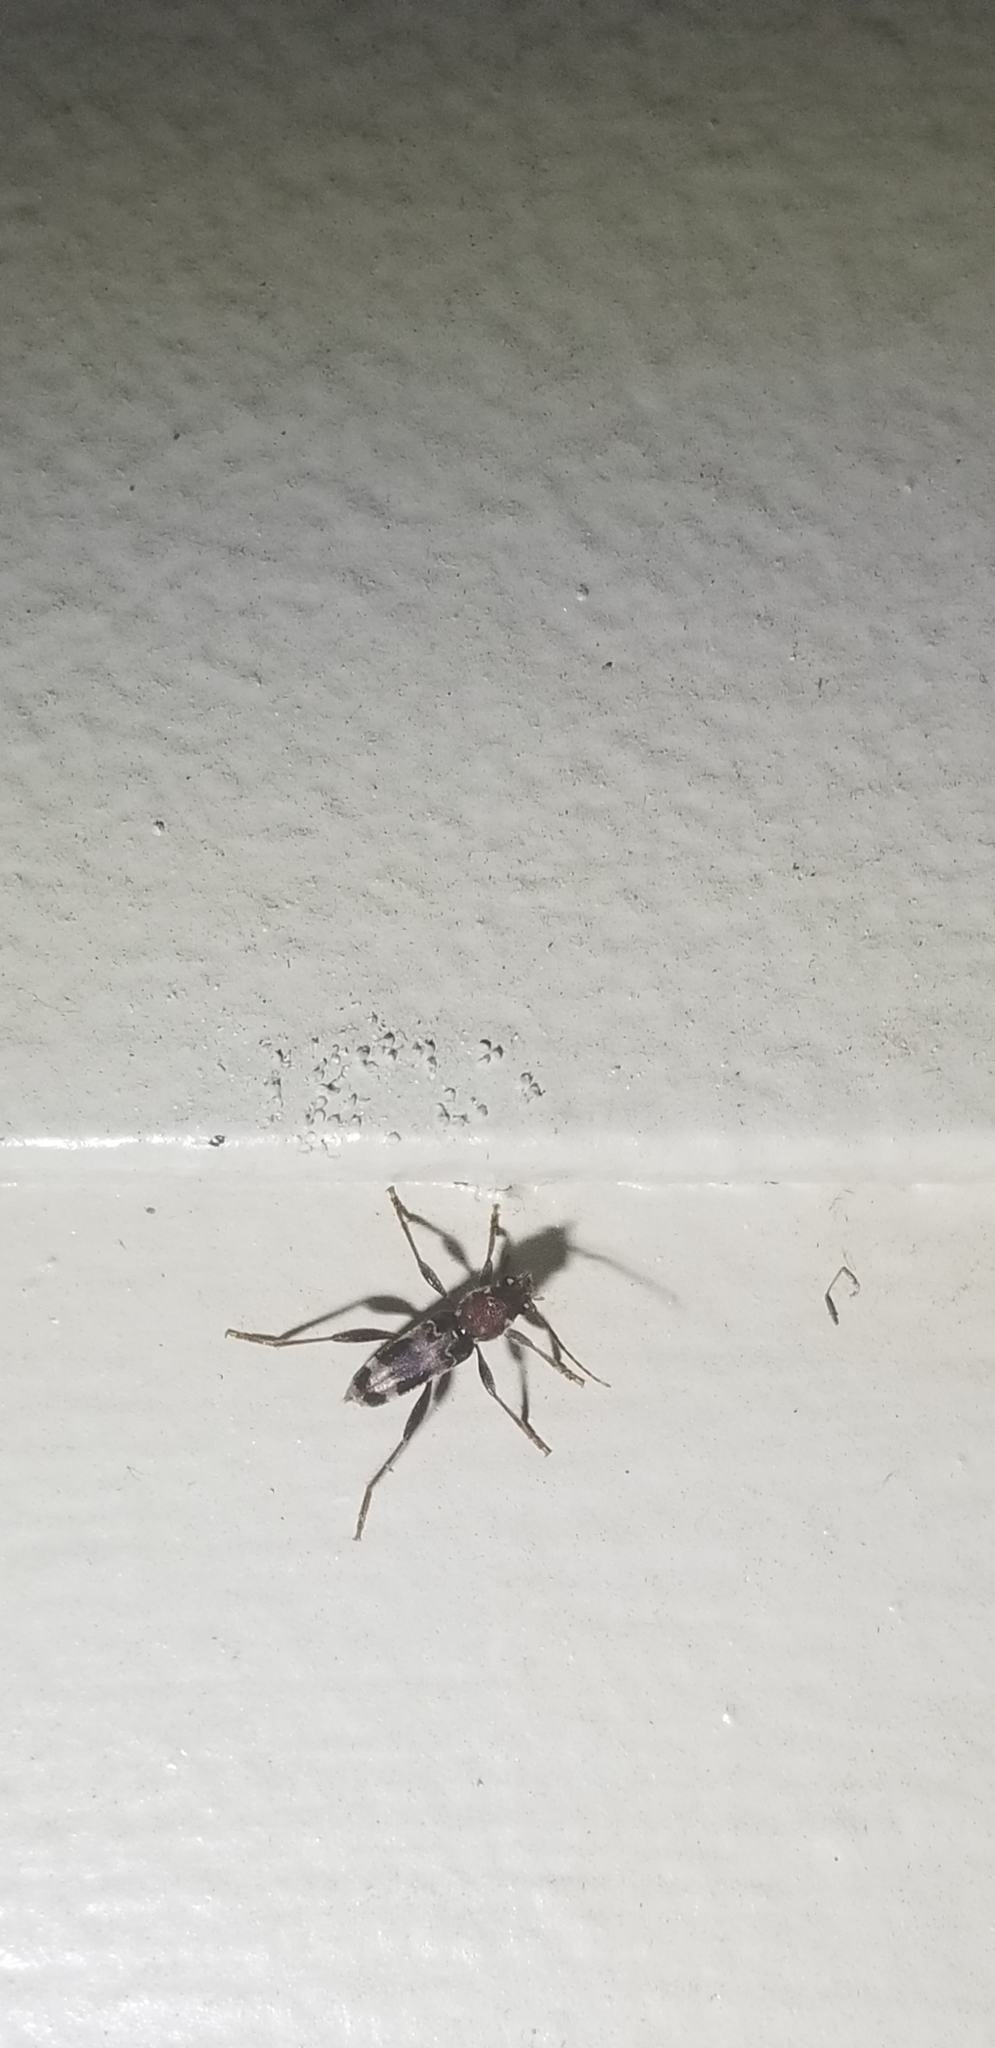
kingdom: Animalia
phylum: Arthropoda
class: Insecta
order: Coleoptera
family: Cerambycidae
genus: Xylotrechus
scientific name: Xylotrechus colonus
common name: Long-horned beetle
